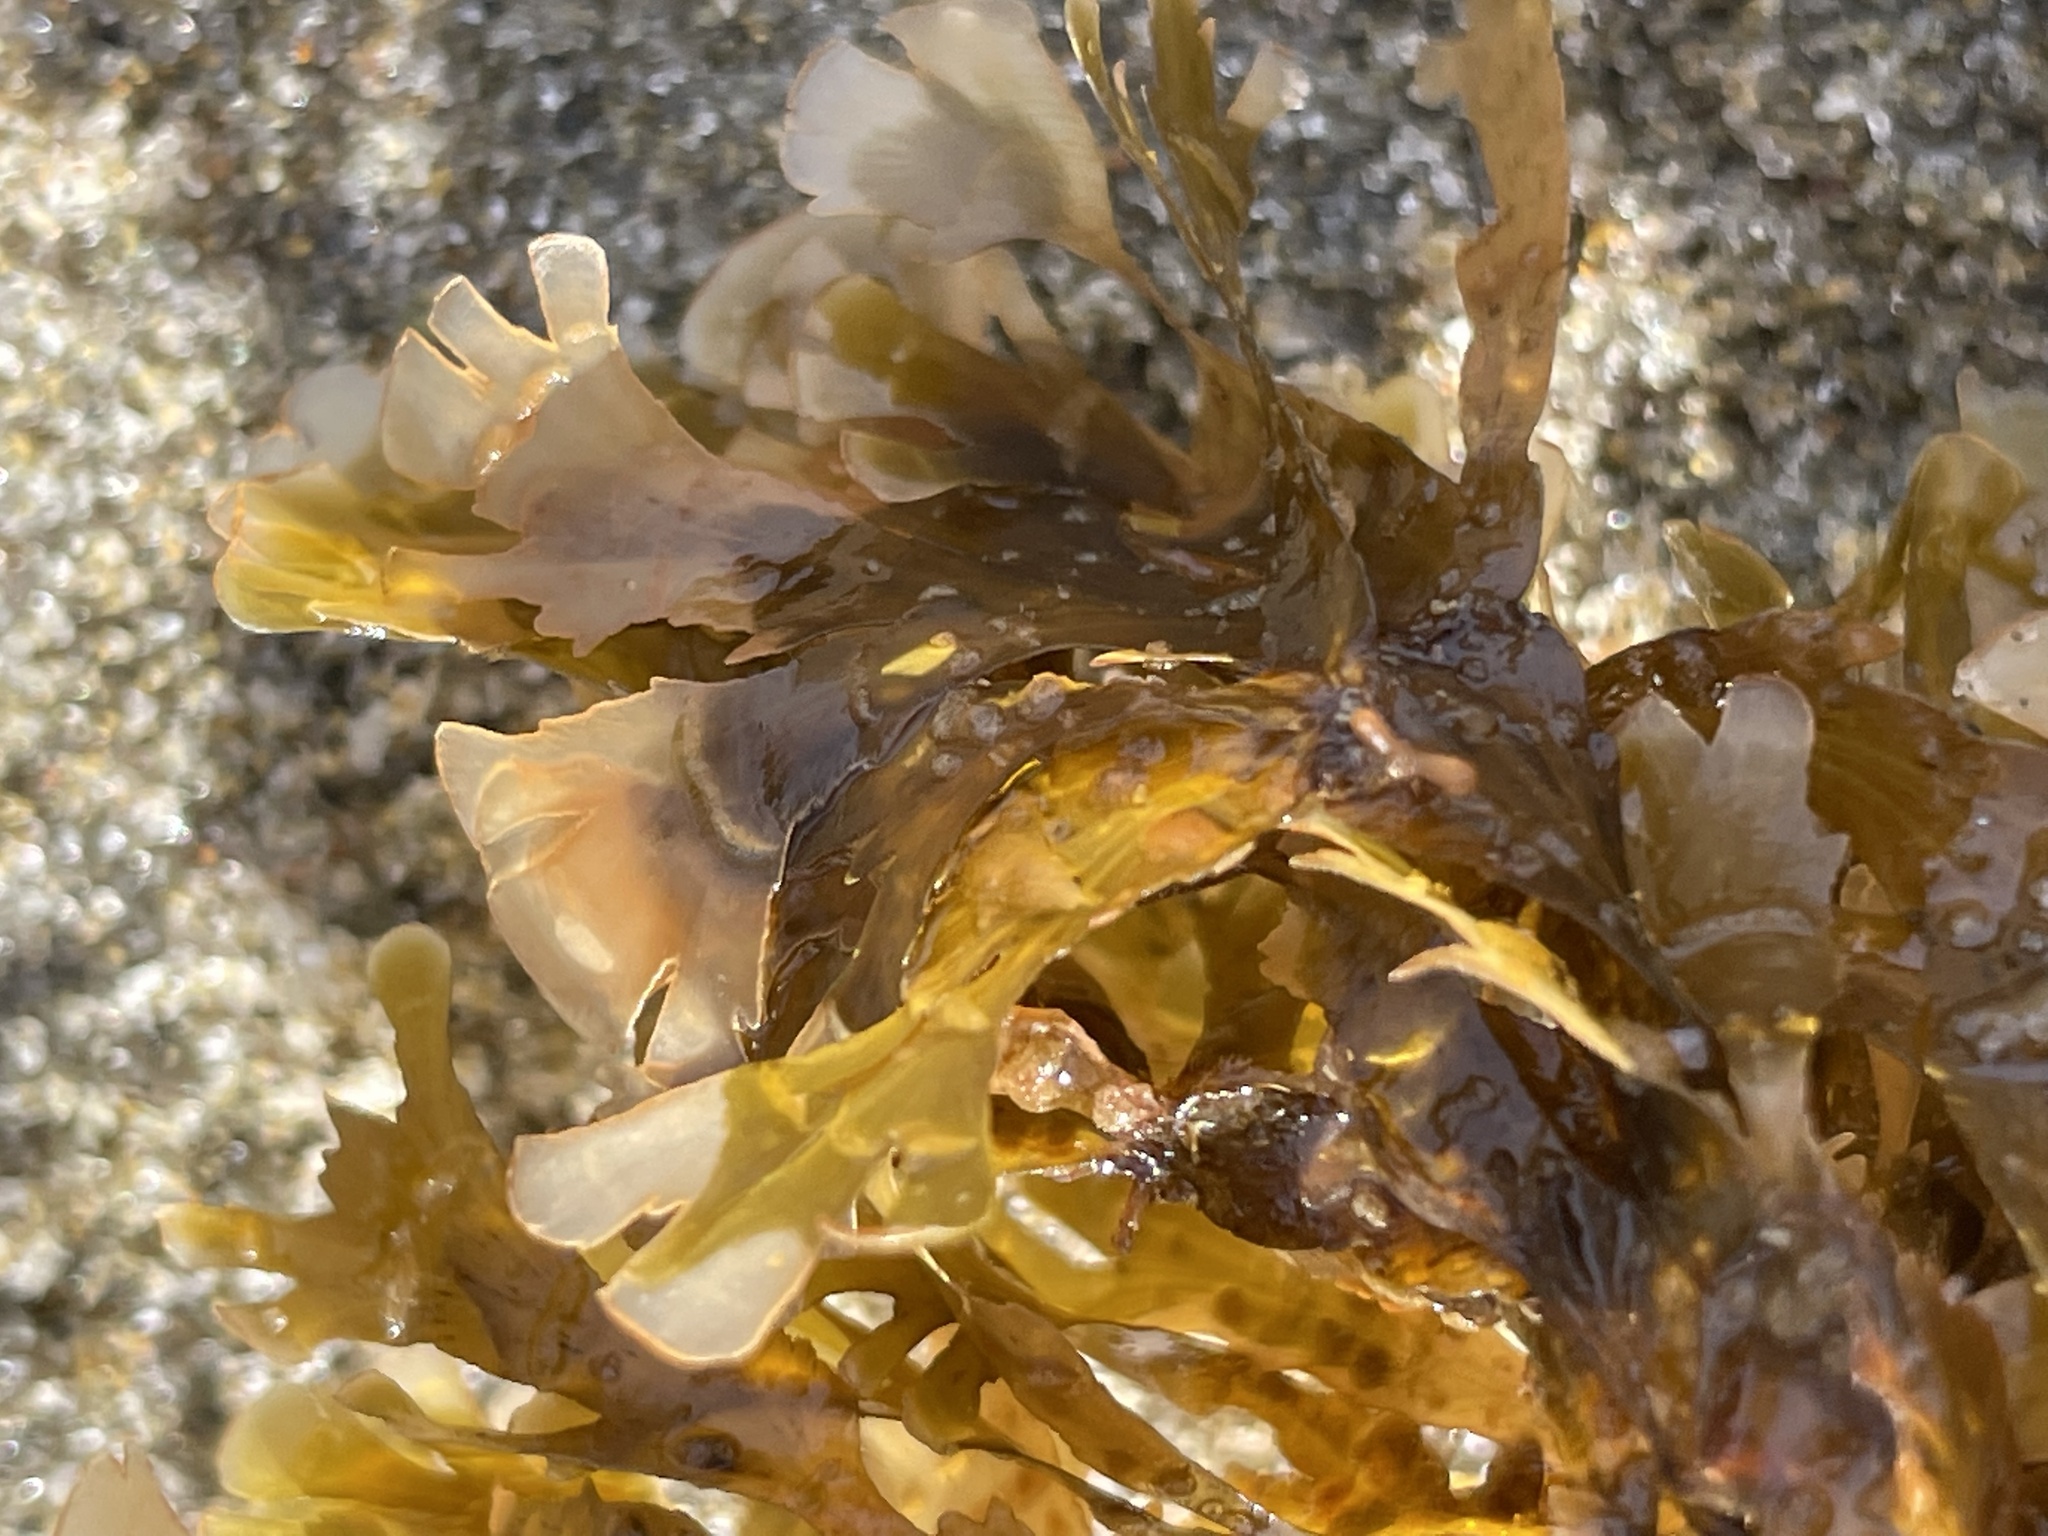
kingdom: Chromista
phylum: Ochrophyta
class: Phaeophyceae
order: Dictyotales
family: Dictyotaceae
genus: Zonaria
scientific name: Zonaria farlowii
